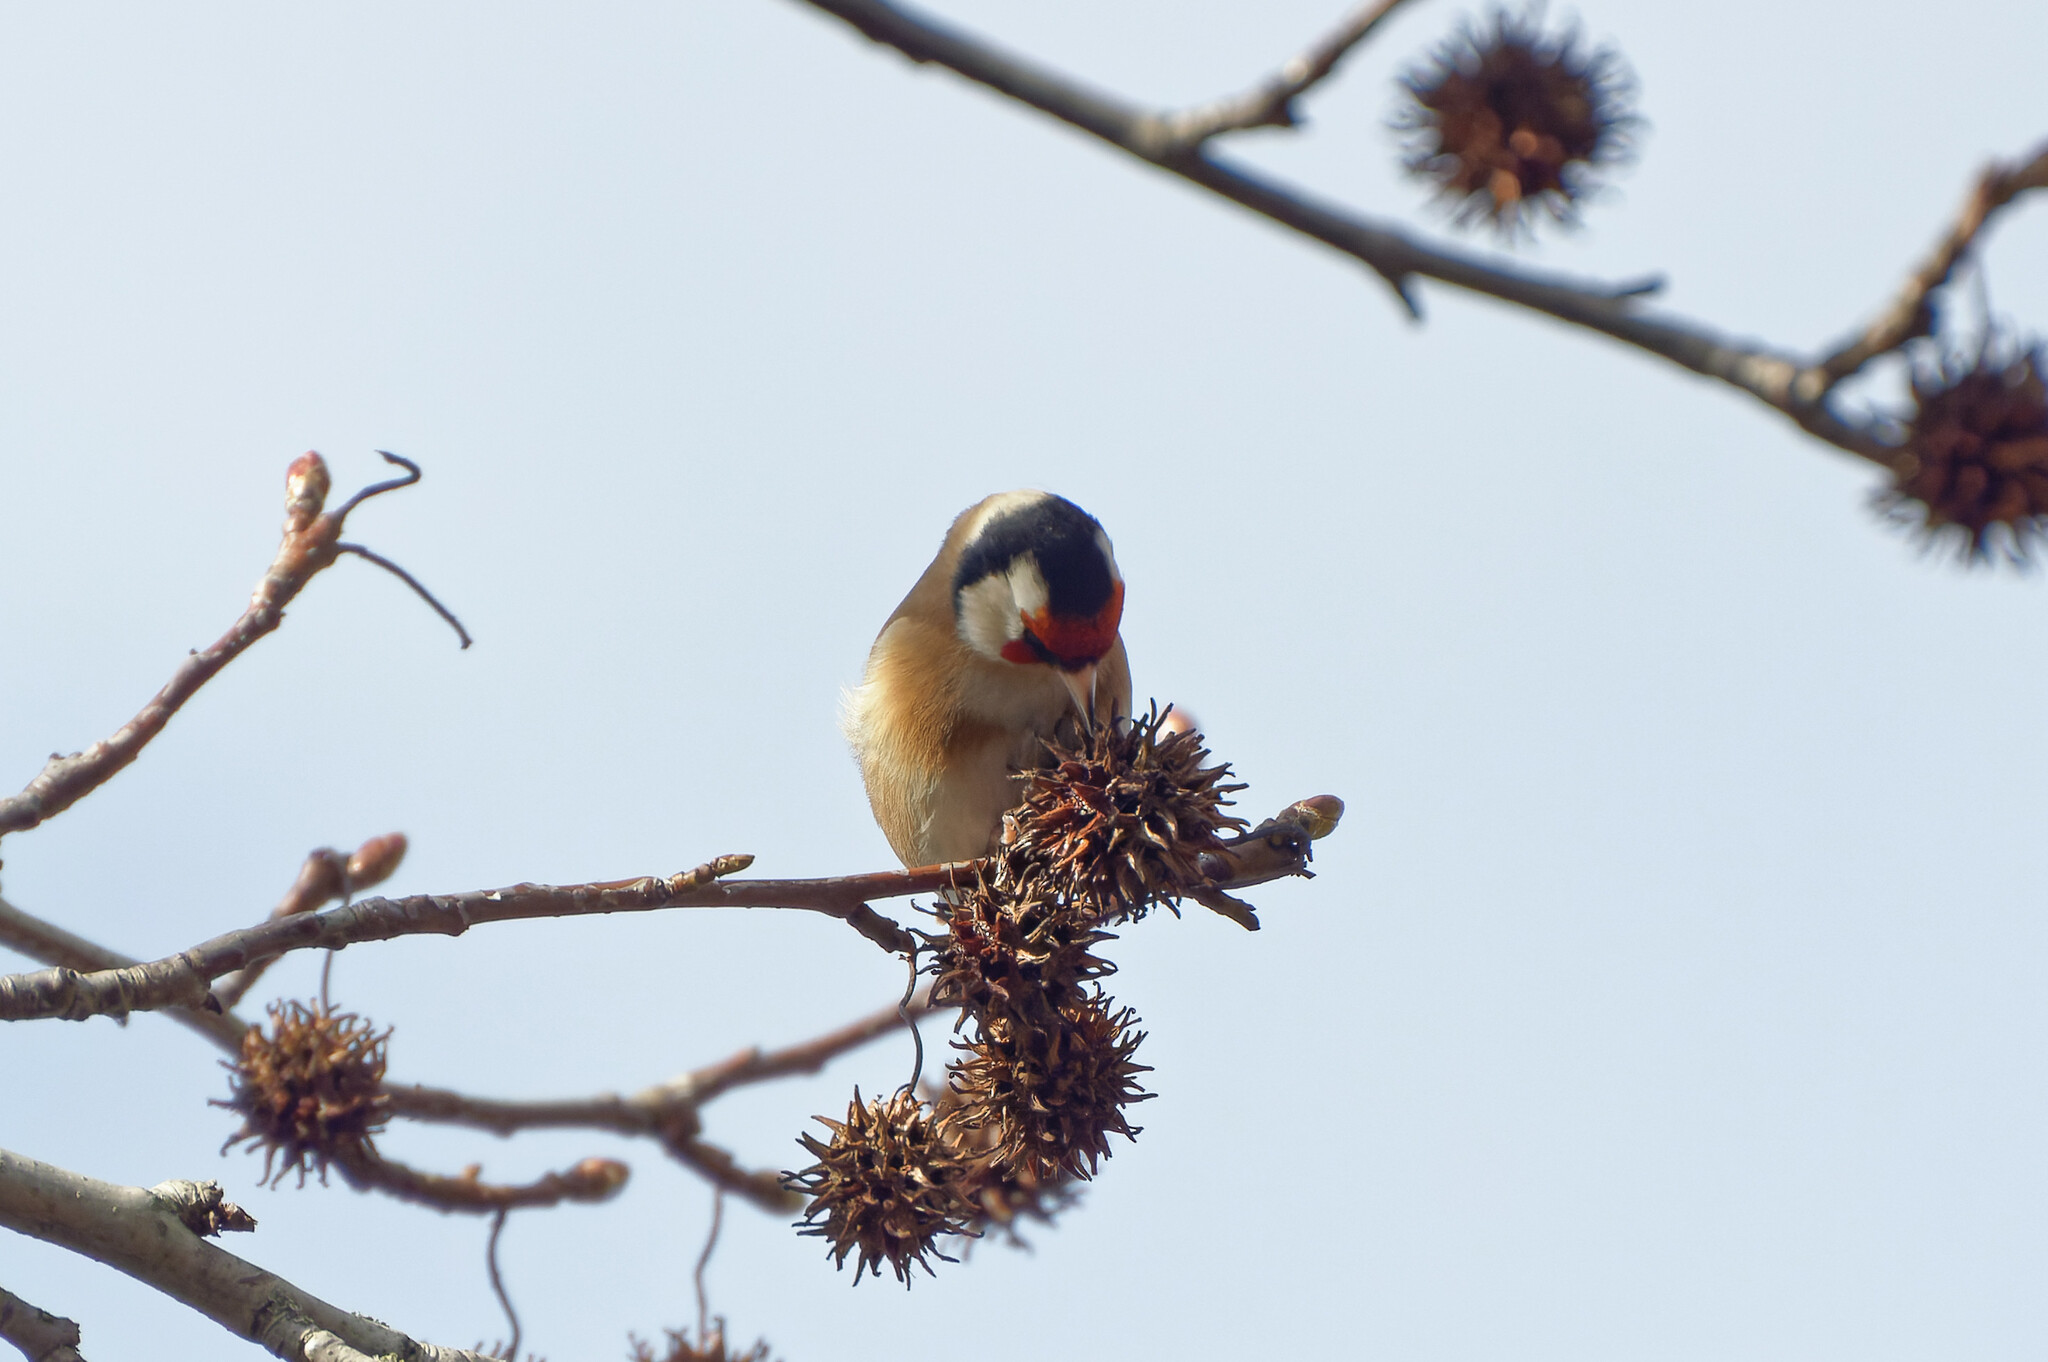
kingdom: Animalia
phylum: Chordata
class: Aves
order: Passeriformes
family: Fringillidae
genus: Carduelis
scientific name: Carduelis carduelis
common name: European goldfinch
